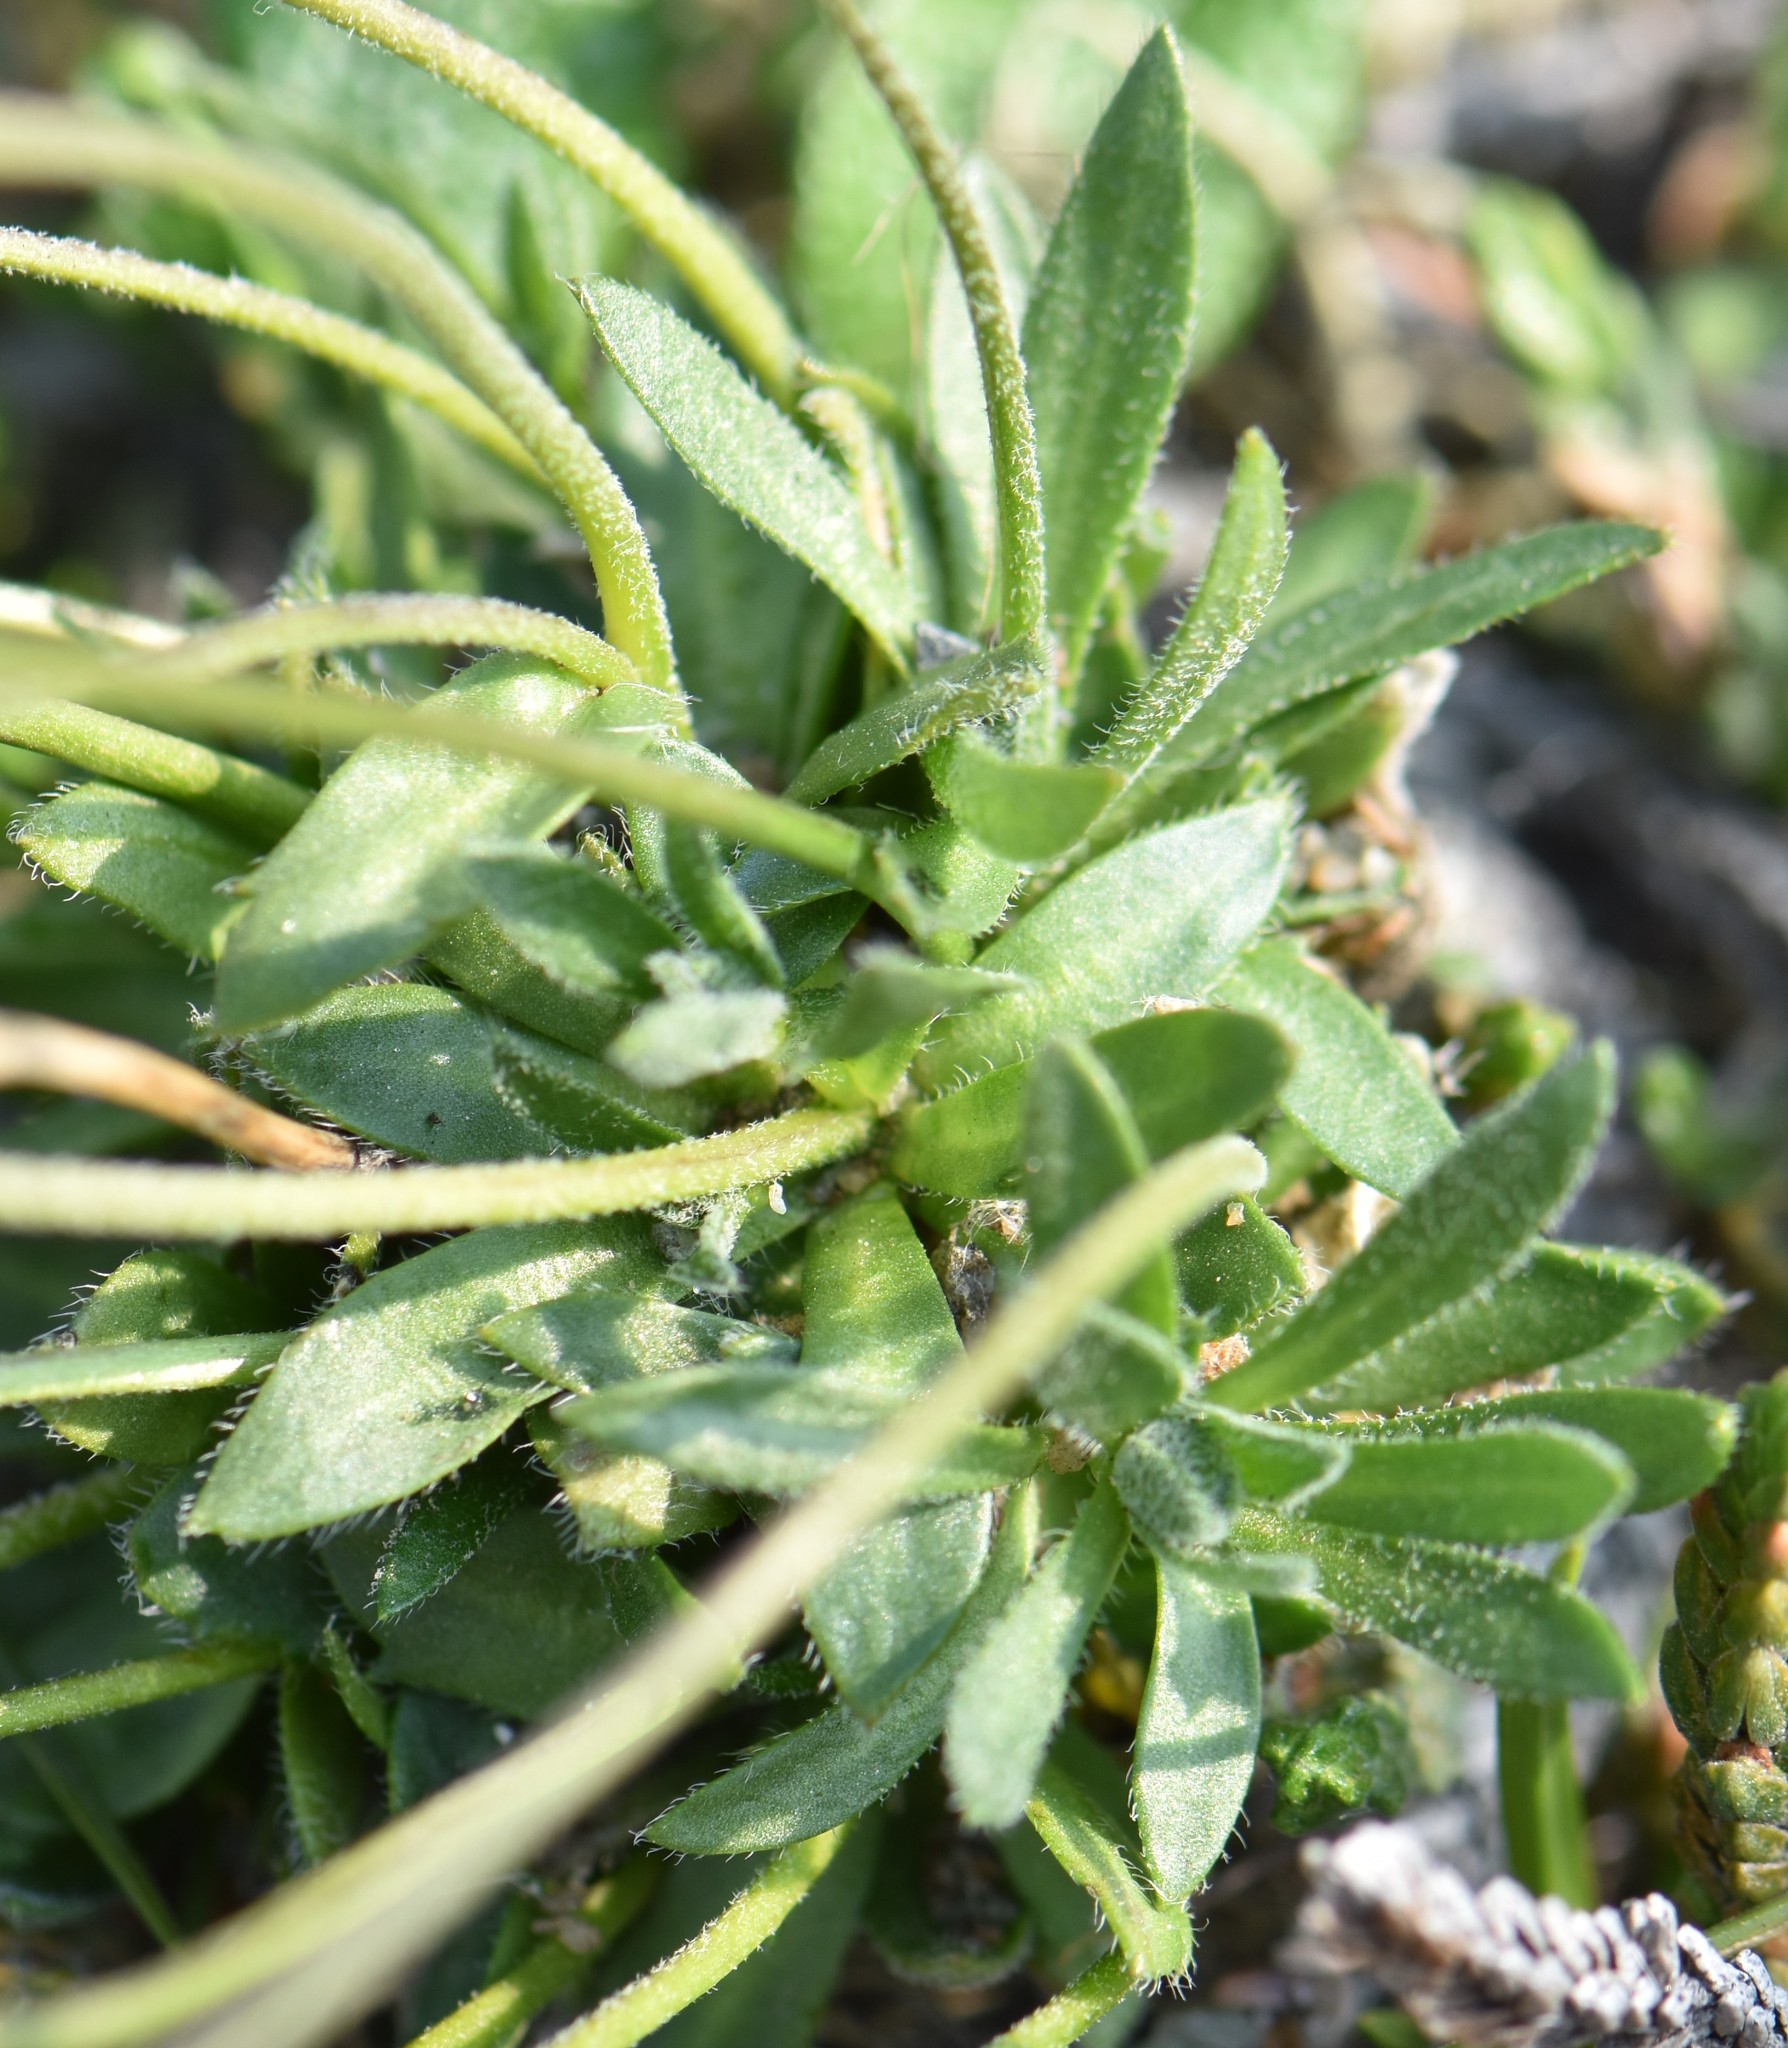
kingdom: Plantae
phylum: Tracheophyta
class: Magnoliopsida
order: Brassicales
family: Brassicaceae
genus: Draba
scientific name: Draba lactea
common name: Milky draba
